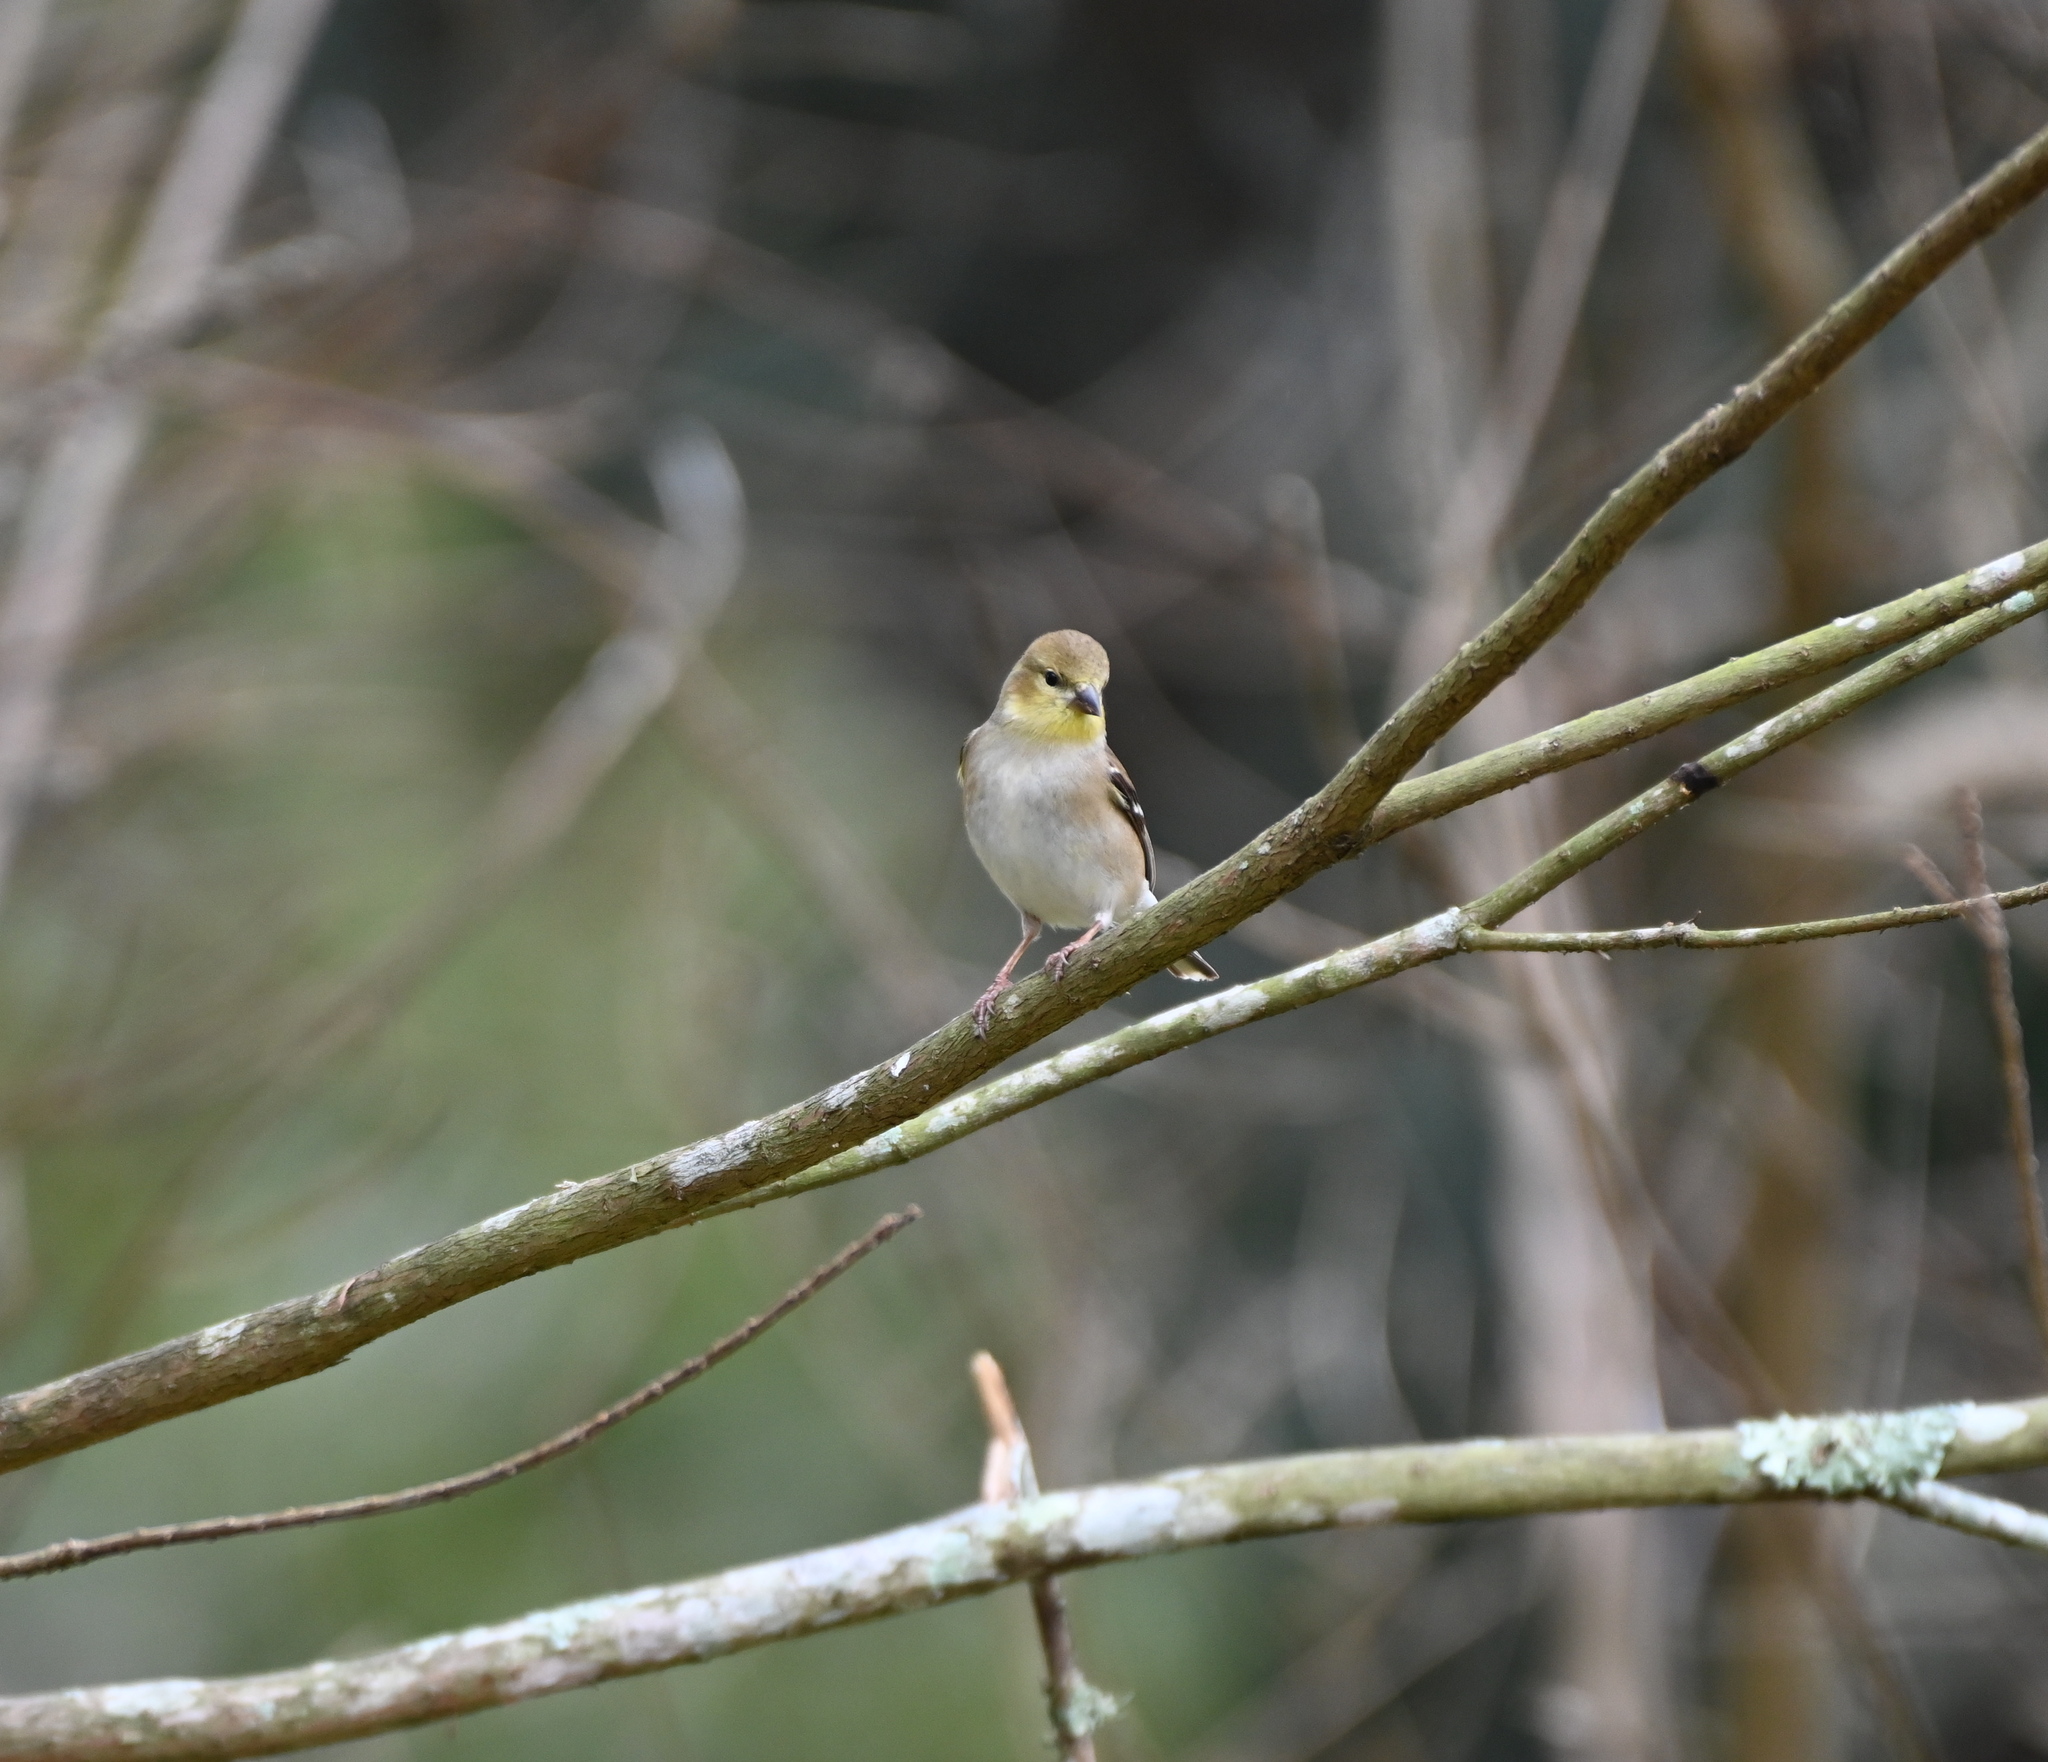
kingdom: Animalia
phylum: Chordata
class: Aves
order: Passeriformes
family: Fringillidae
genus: Spinus
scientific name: Spinus tristis
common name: American goldfinch
